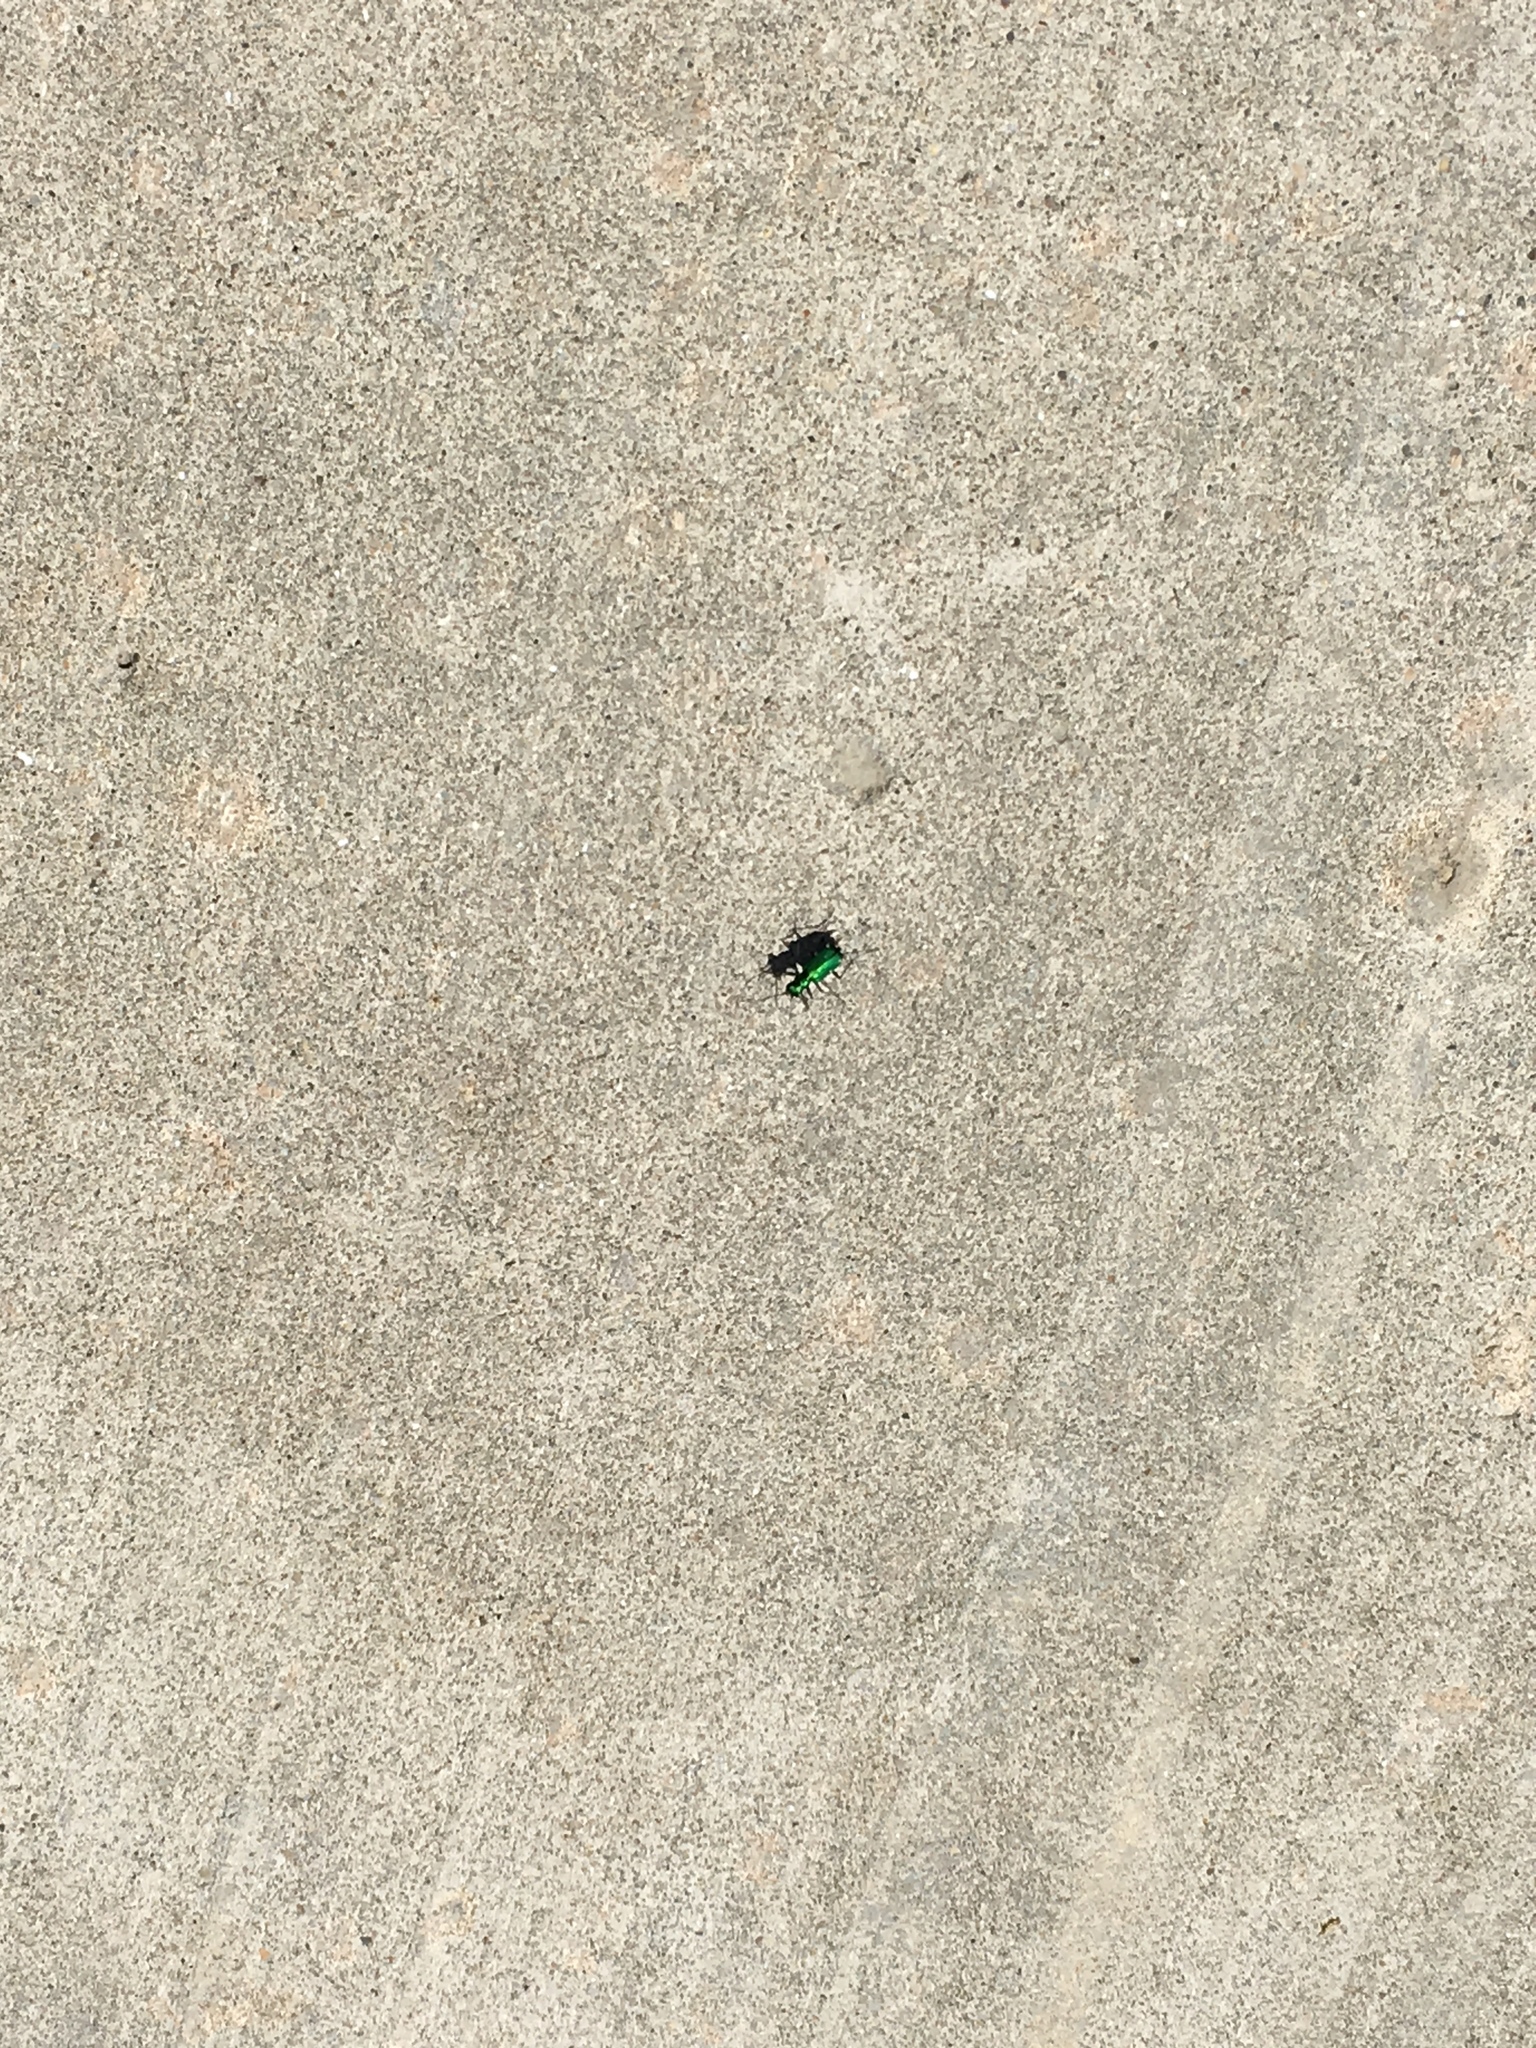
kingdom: Animalia
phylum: Arthropoda
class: Insecta
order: Coleoptera
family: Carabidae
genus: Cicindela
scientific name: Cicindela sexguttata
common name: Six-spotted tiger beetle
